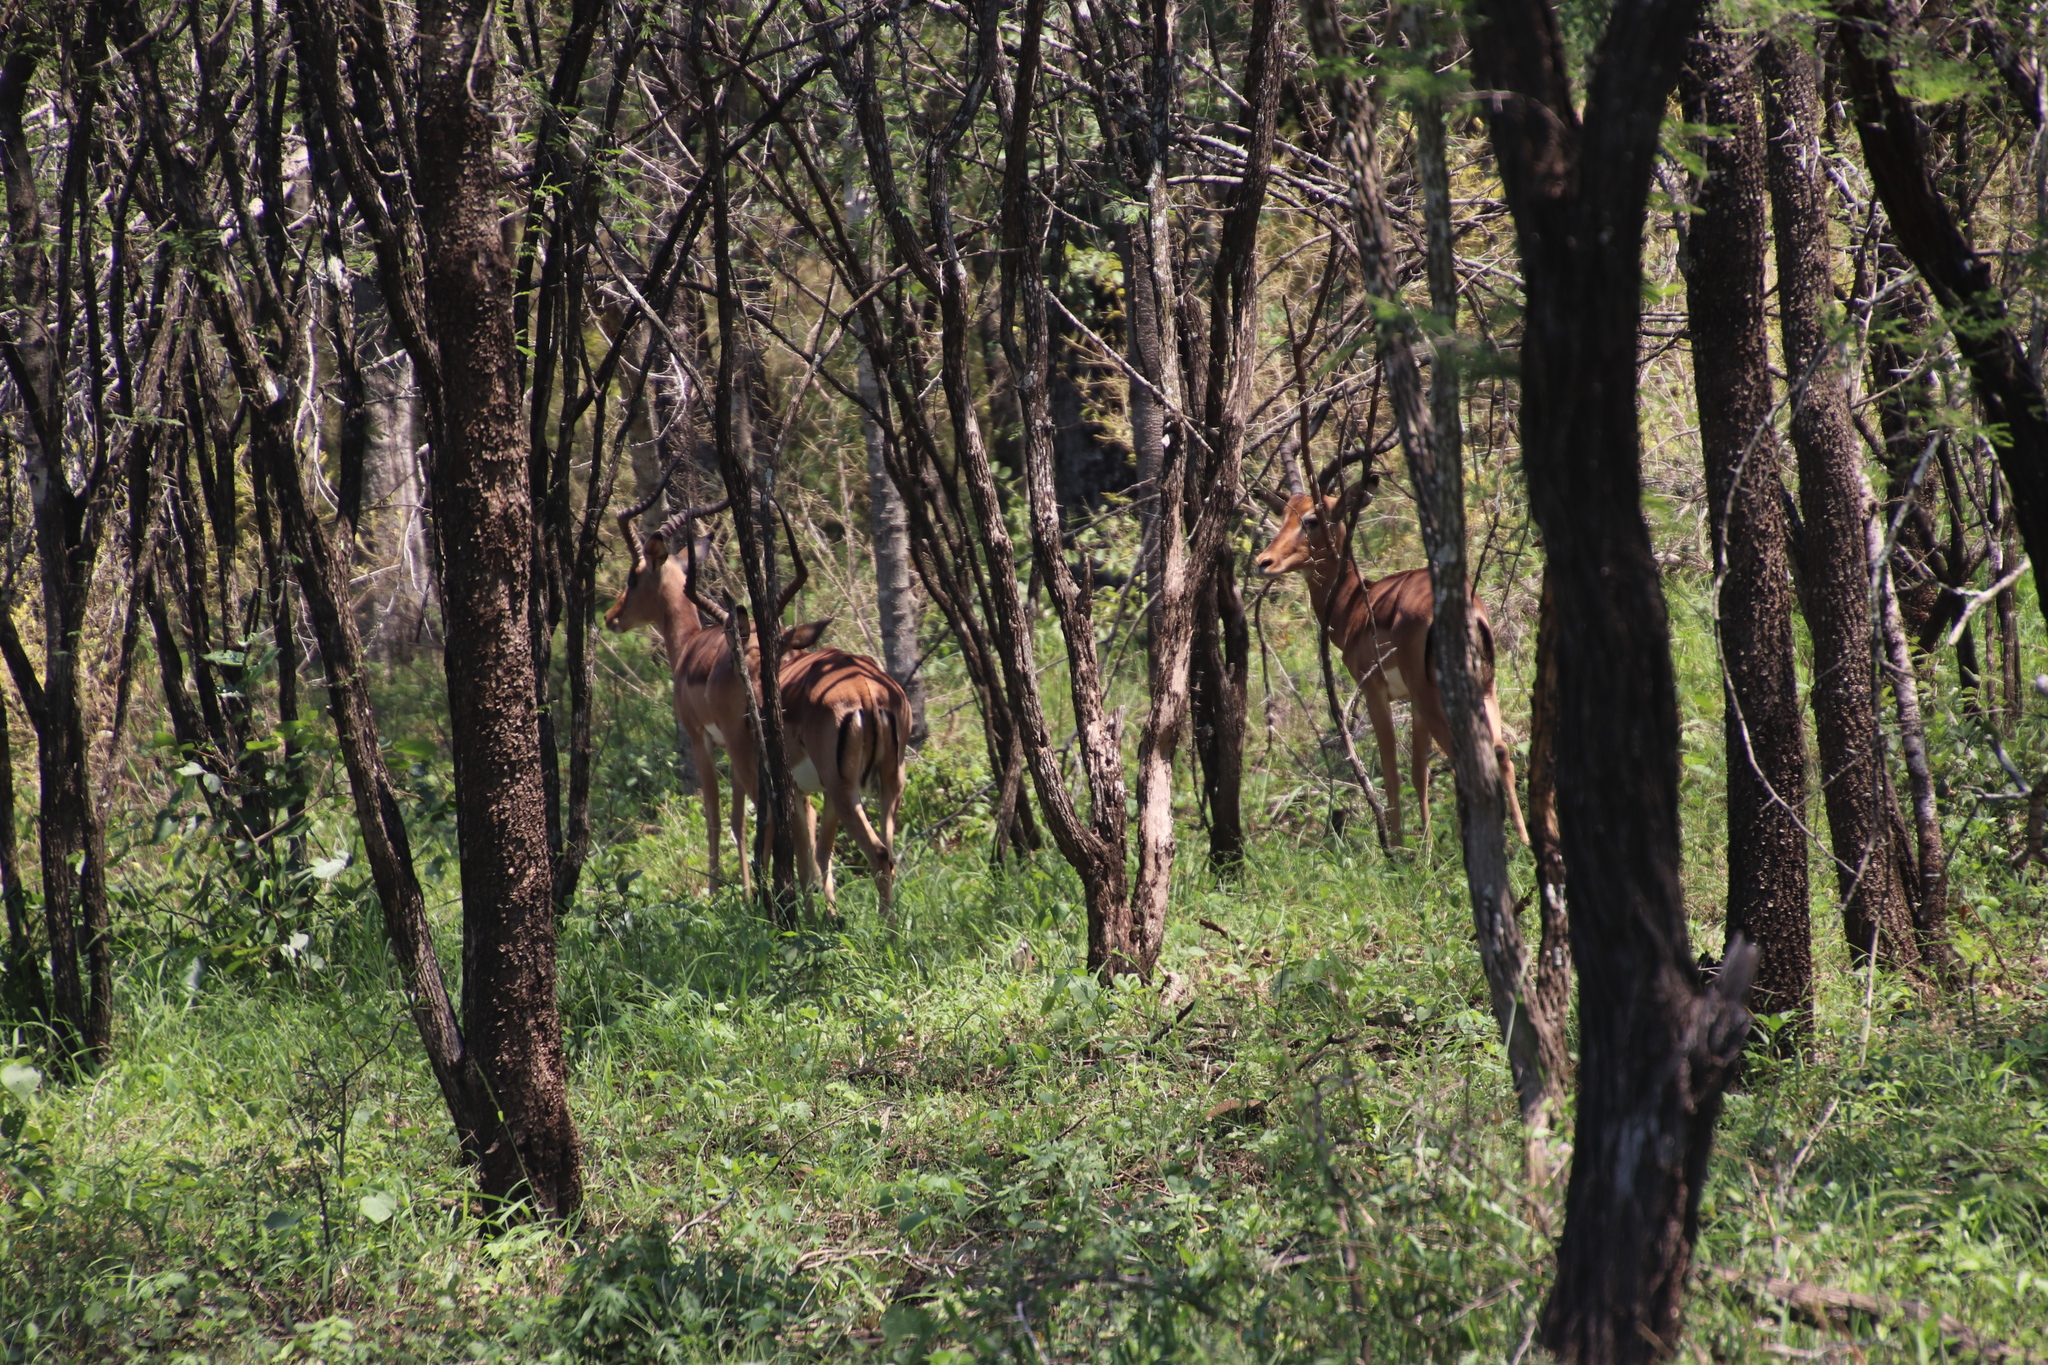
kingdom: Animalia
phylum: Chordata
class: Mammalia
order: Artiodactyla
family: Bovidae
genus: Aepyceros
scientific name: Aepyceros melampus
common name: Impala
